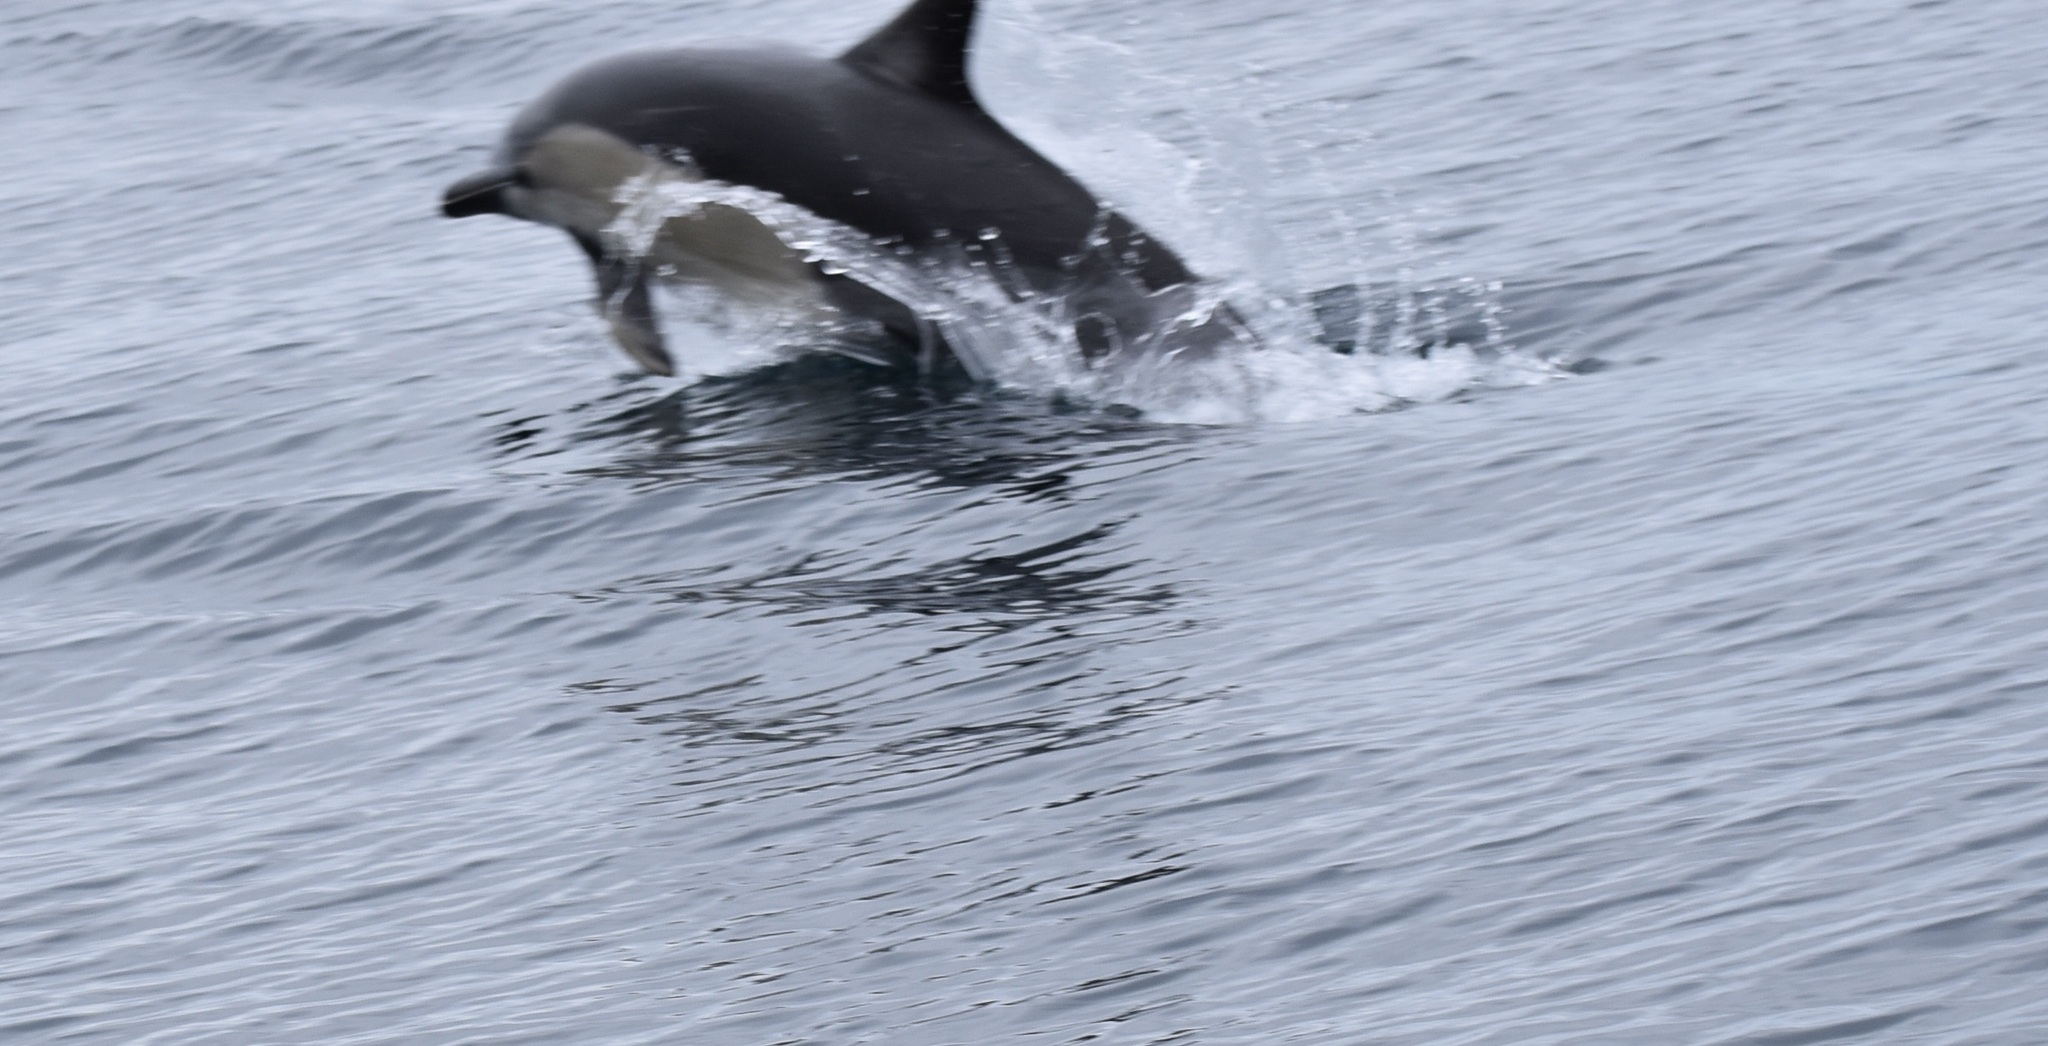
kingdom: Animalia
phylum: Chordata
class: Mammalia
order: Cetacea
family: Delphinidae
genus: Delphinus
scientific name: Delphinus delphis
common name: Common dolphin
